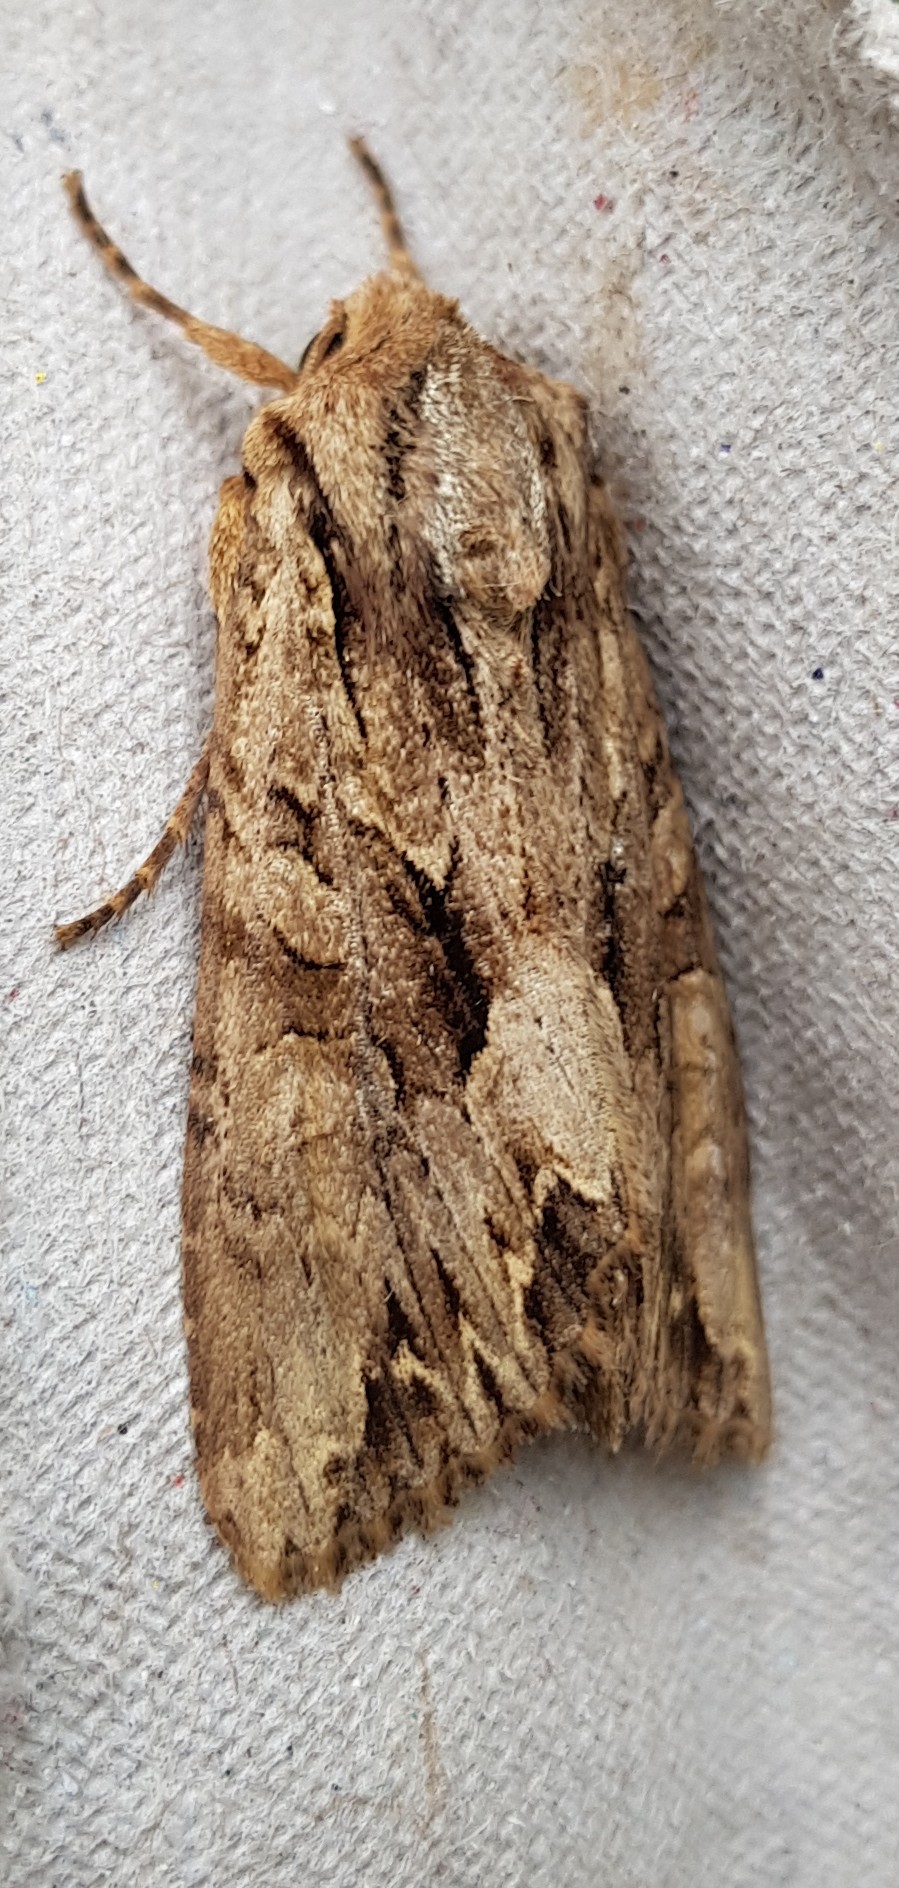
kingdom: Animalia
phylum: Arthropoda
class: Insecta
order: Lepidoptera
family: Noctuidae
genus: Apamea
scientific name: Apamea monoglypha
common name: Dark arches
